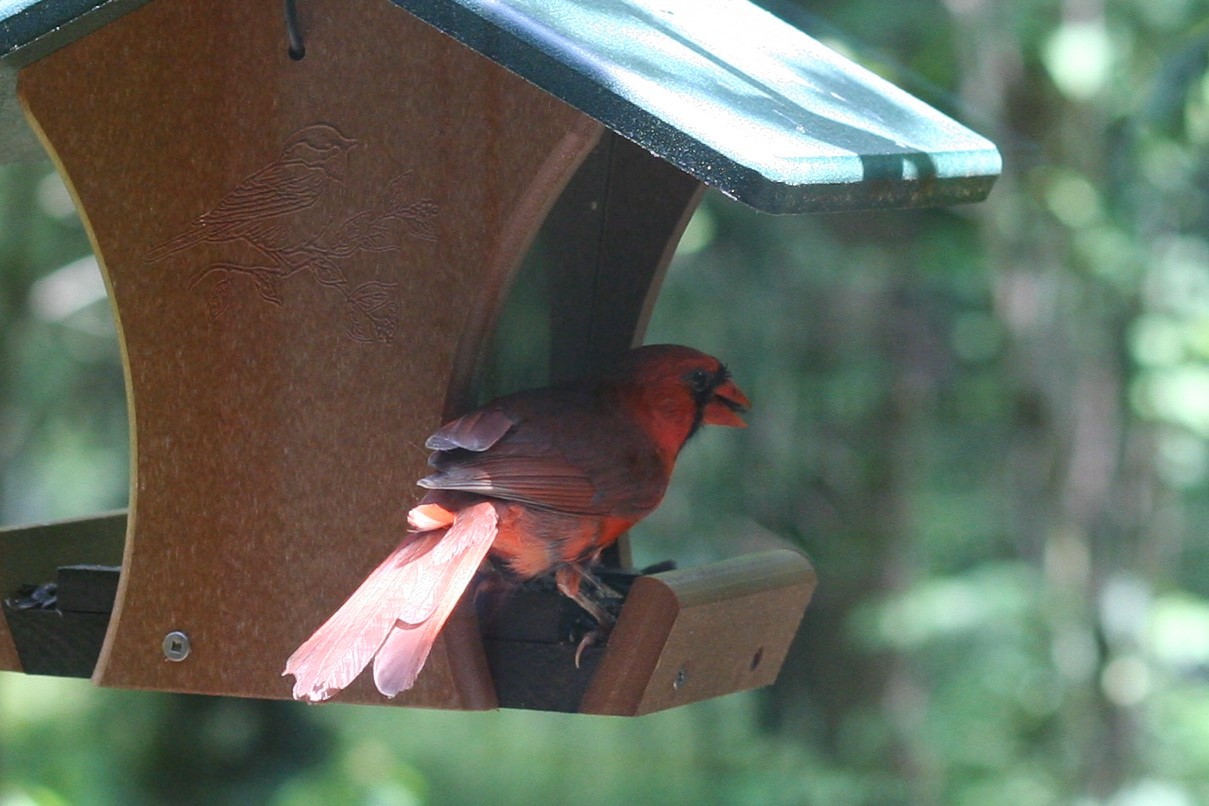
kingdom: Animalia
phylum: Chordata
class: Aves
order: Passeriformes
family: Cardinalidae
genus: Cardinalis
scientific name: Cardinalis cardinalis
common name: Northern cardinal
